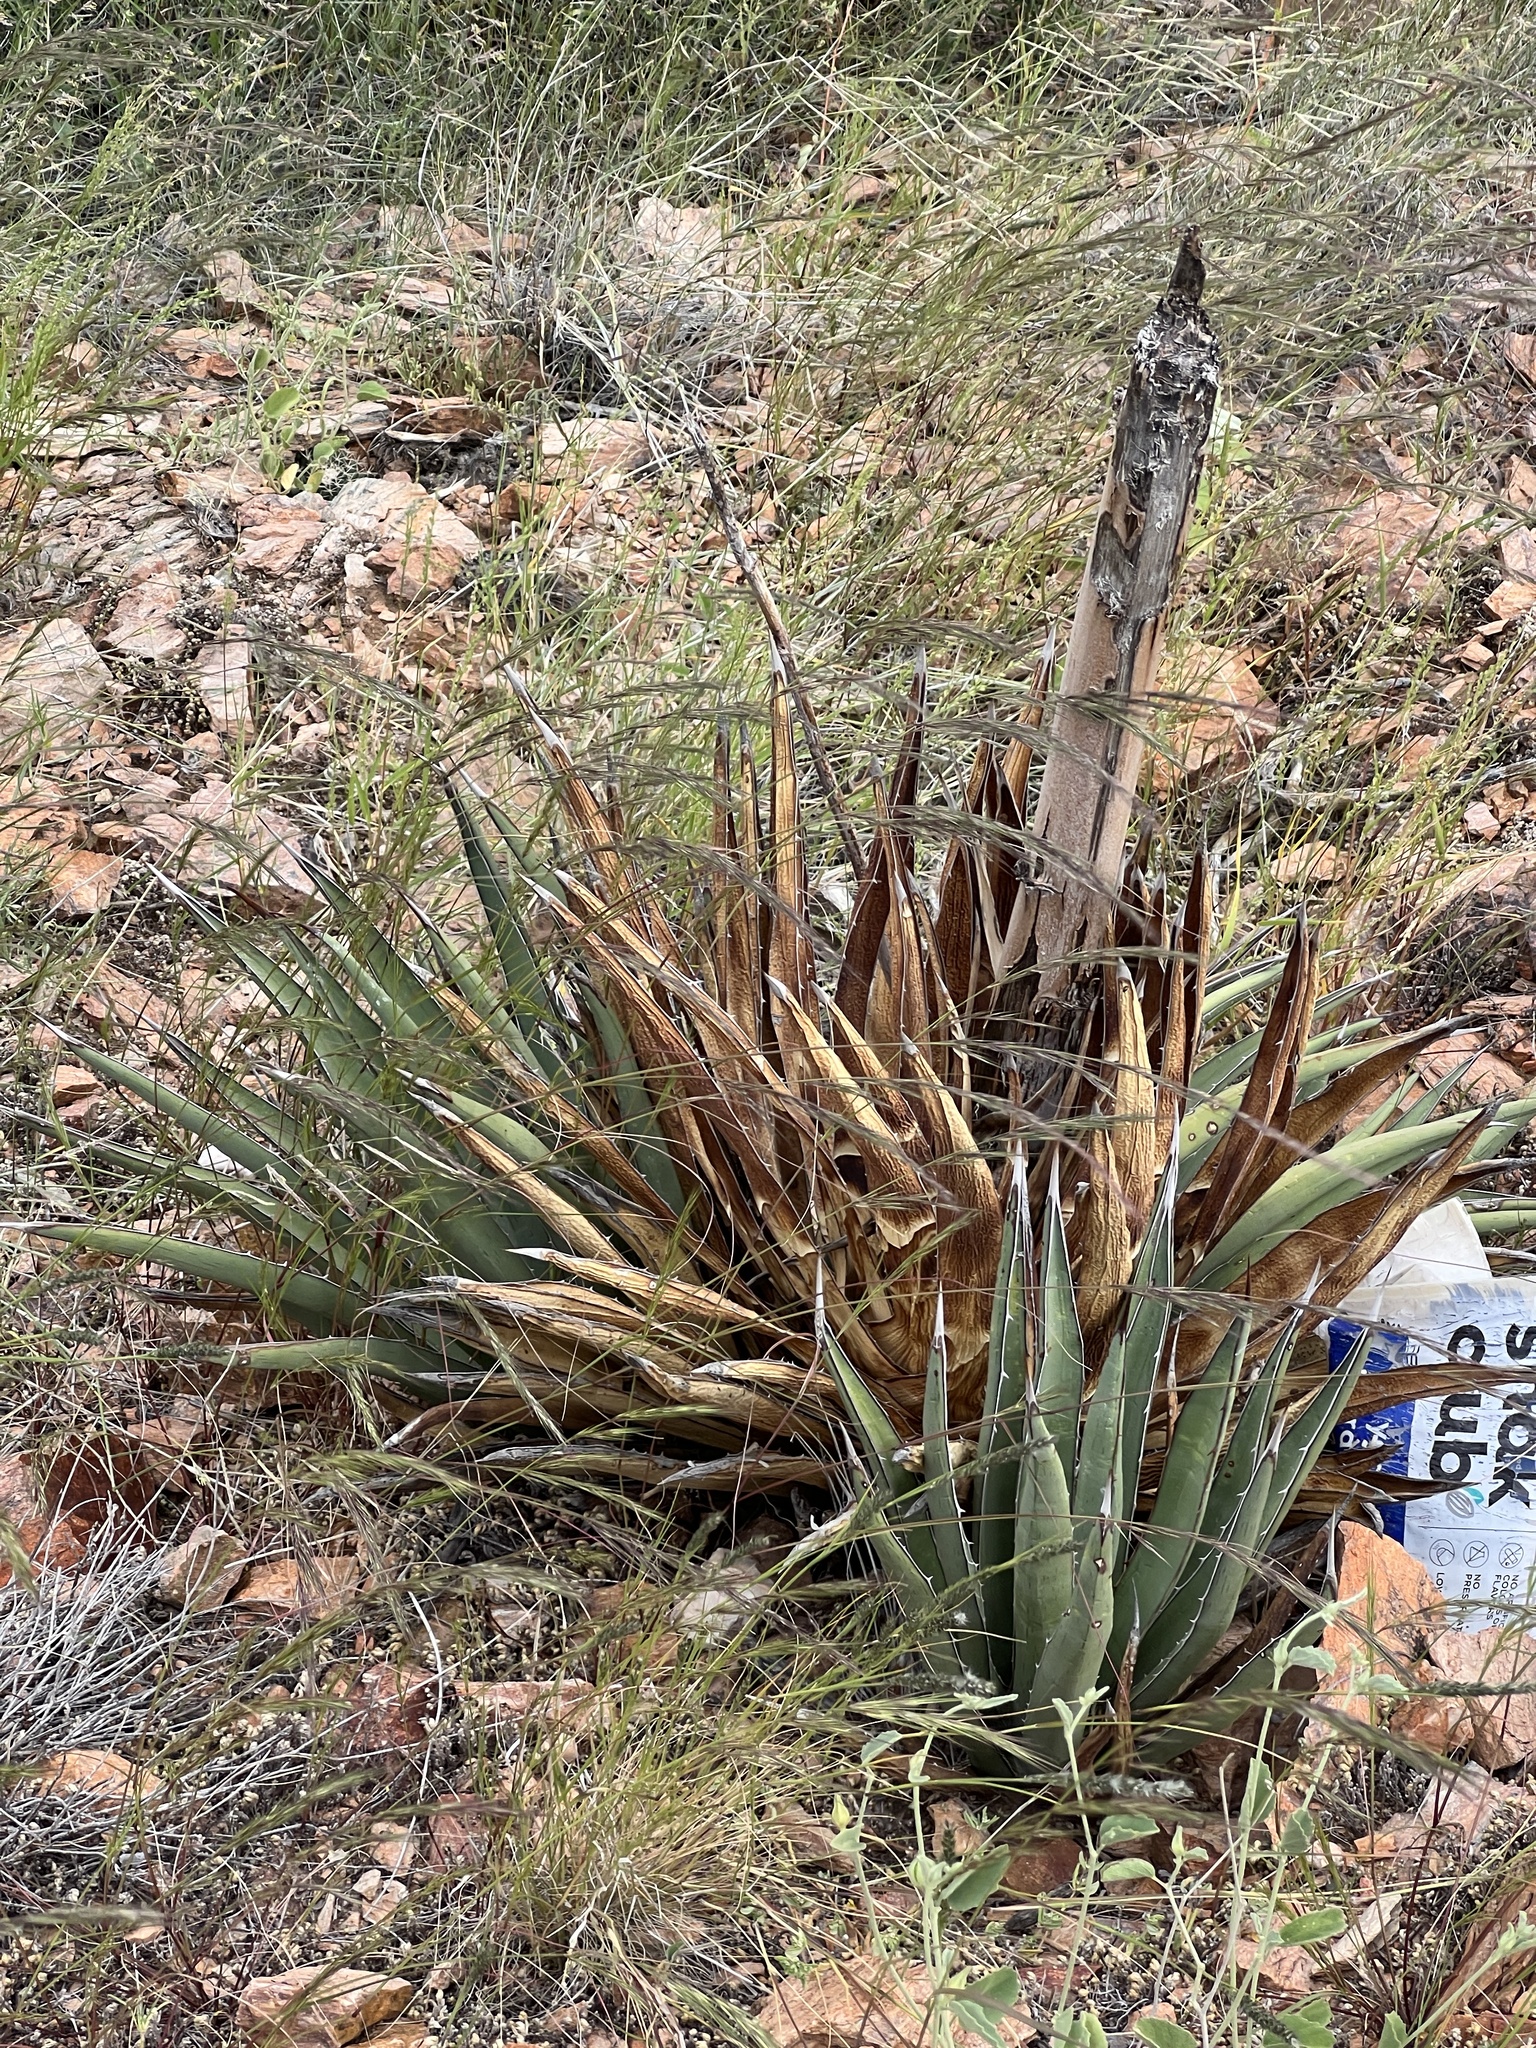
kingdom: Plantae
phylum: Tracheophyta
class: Liliopsida
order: Asparagales
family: Asparagaceae
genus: Agave
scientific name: Agave lechuguilla
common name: Lecheguilla agave
